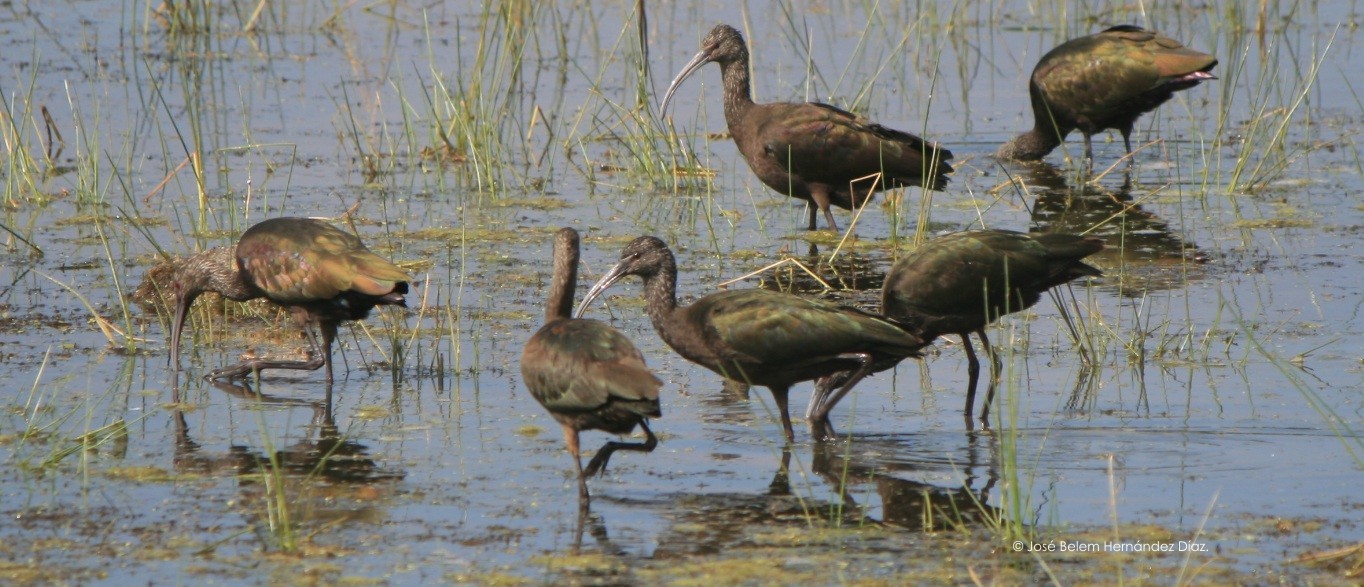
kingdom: Animalia
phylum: Chordata
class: Aves
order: Pelecaniformes
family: Threskiornithidae
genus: Plegadis
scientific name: Plegadis chihi
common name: White-faced ibis
